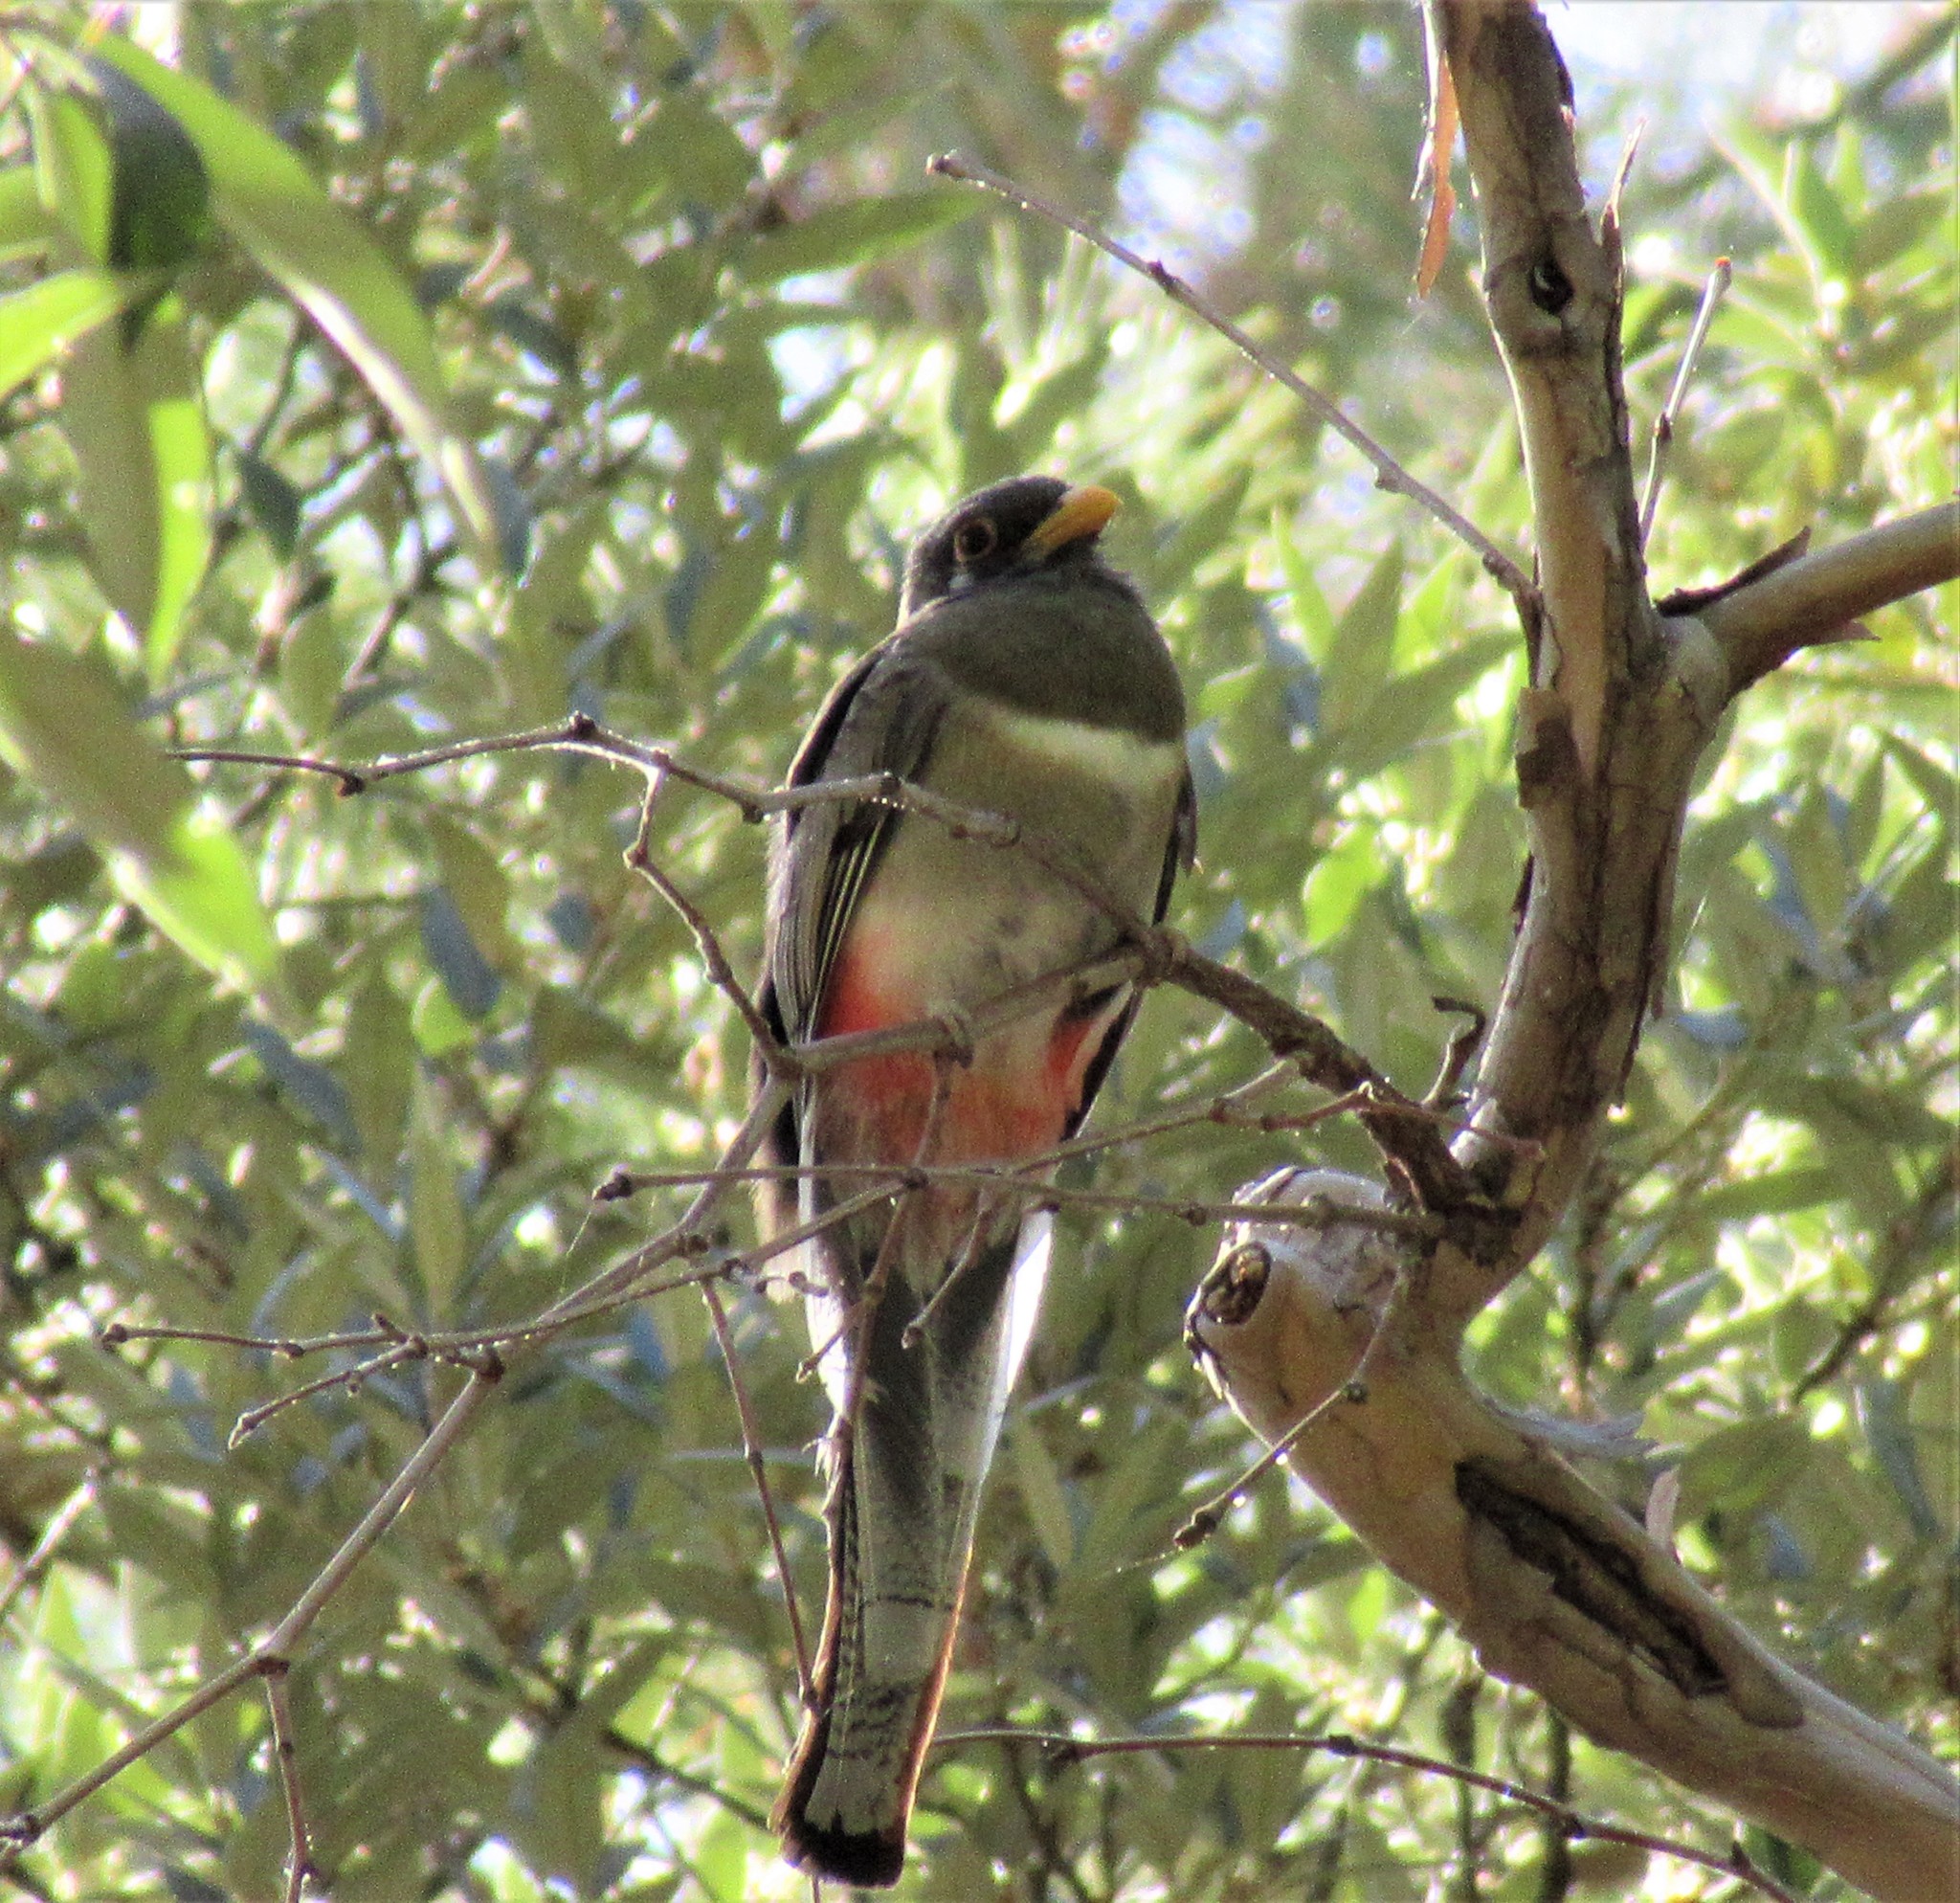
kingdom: Animalia
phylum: Chordata
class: Aves
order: Trogoniformes
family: Trogonidae
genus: Trogon
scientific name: Trogon elegans
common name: Elegant trogon
